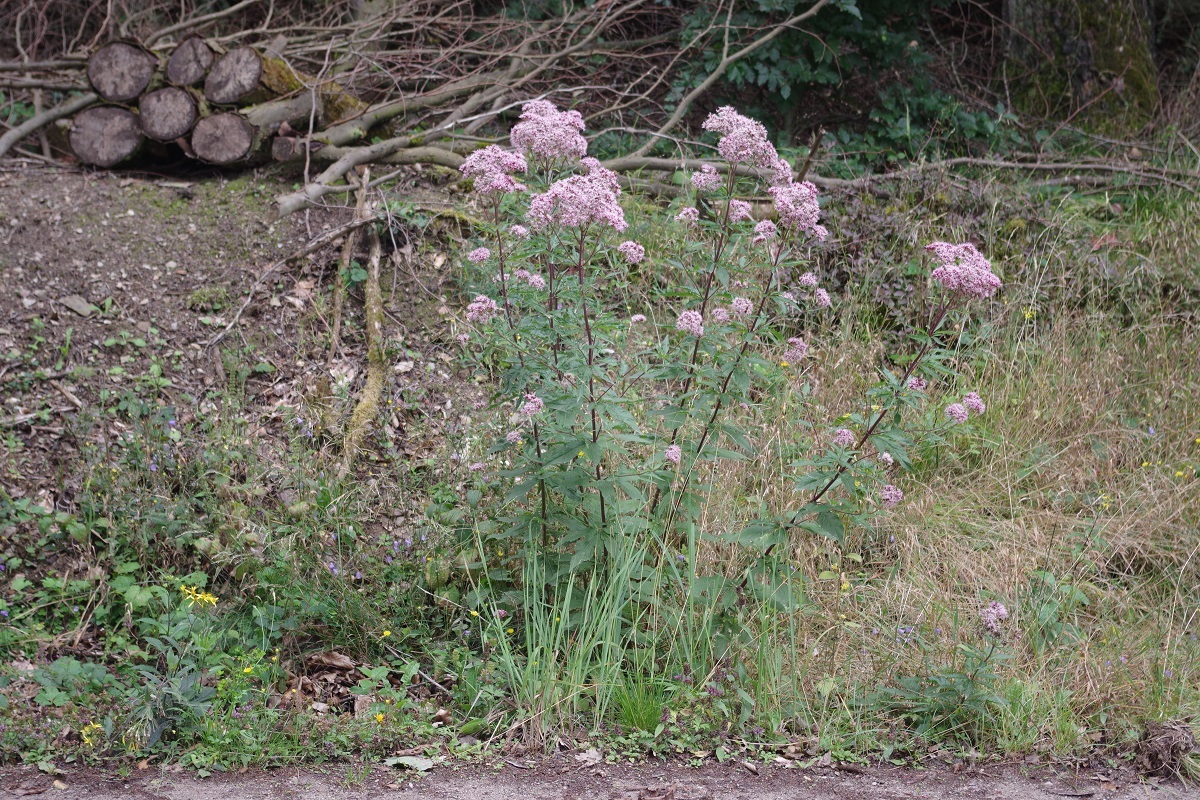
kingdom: Plantae
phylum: Tracheophyta
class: Magnoliopsida
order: Asterales
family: Asteraceae
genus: Eupatorium
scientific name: Eupatorium cannabinum
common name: Hemp-agrimony
